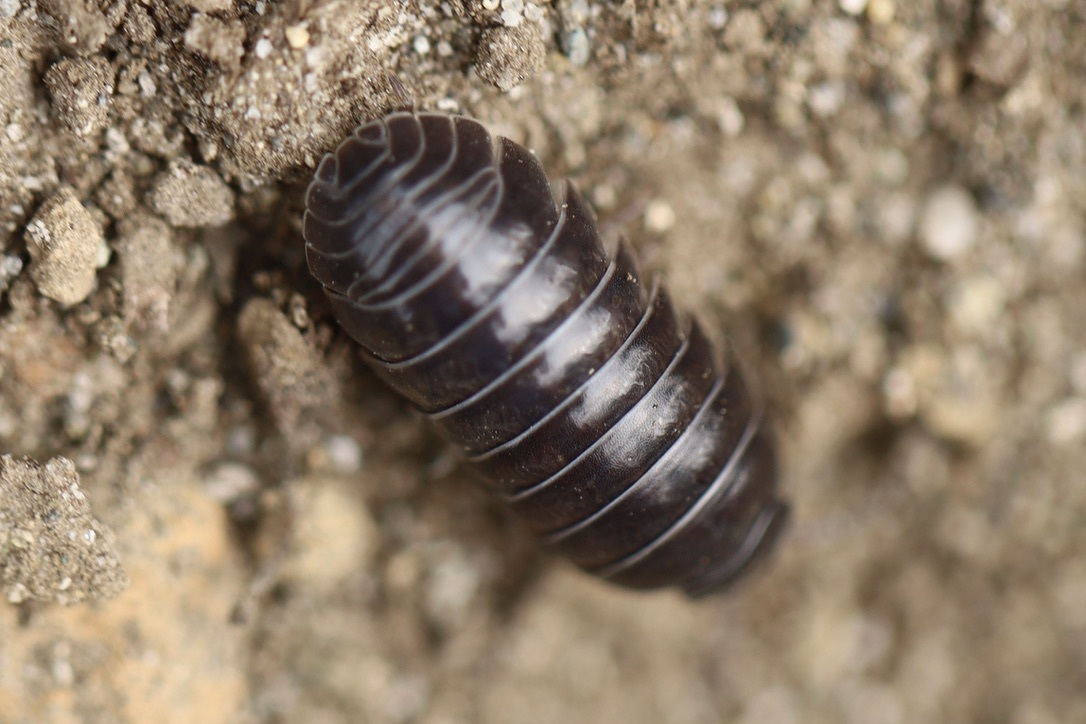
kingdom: Animalia
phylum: Arthropoda
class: Malacostraca
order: Isopoda
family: Armadillidiidae
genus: Armadillidium
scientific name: Armadillidium vulgare
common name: Common pill woodlouse
